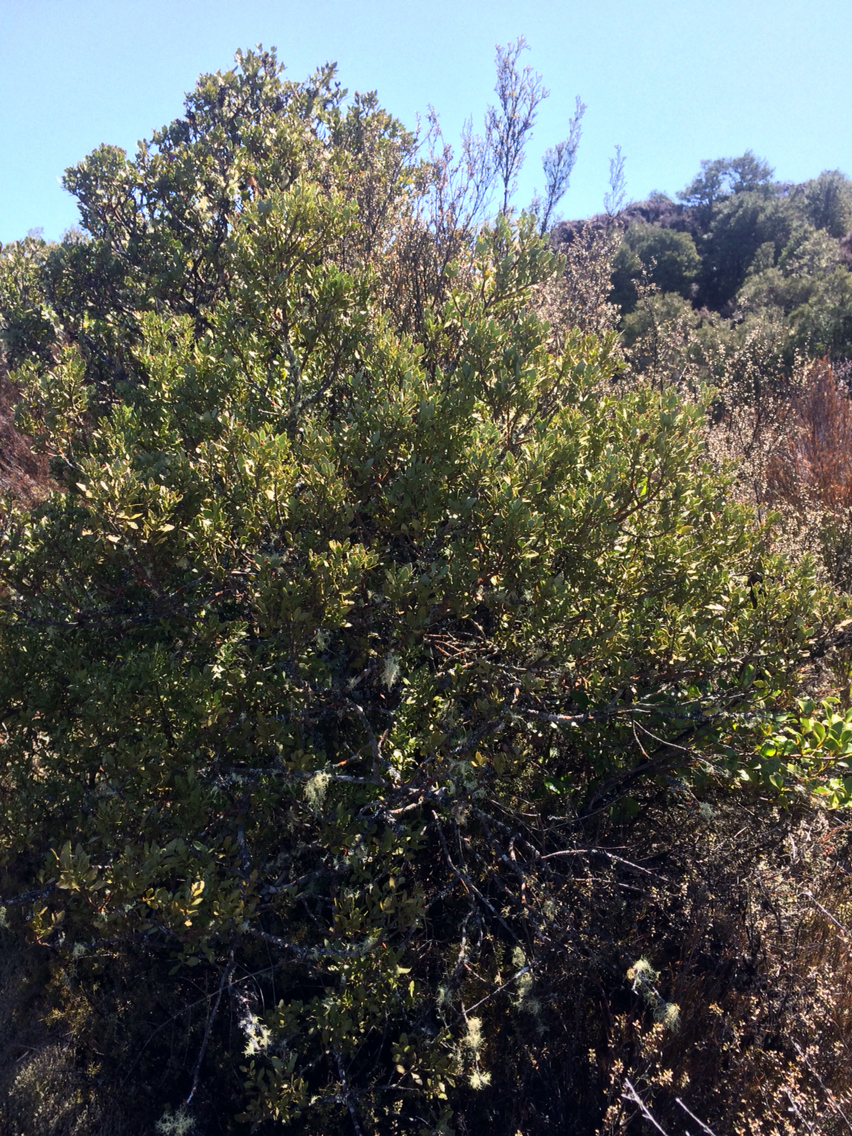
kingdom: Plantae
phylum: Tracheophyta
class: Pinopsida
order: Pinales
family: Phyllocladaceae
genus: Phyllocladus
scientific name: Phyllocladus trichomanoides
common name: Celery pine
